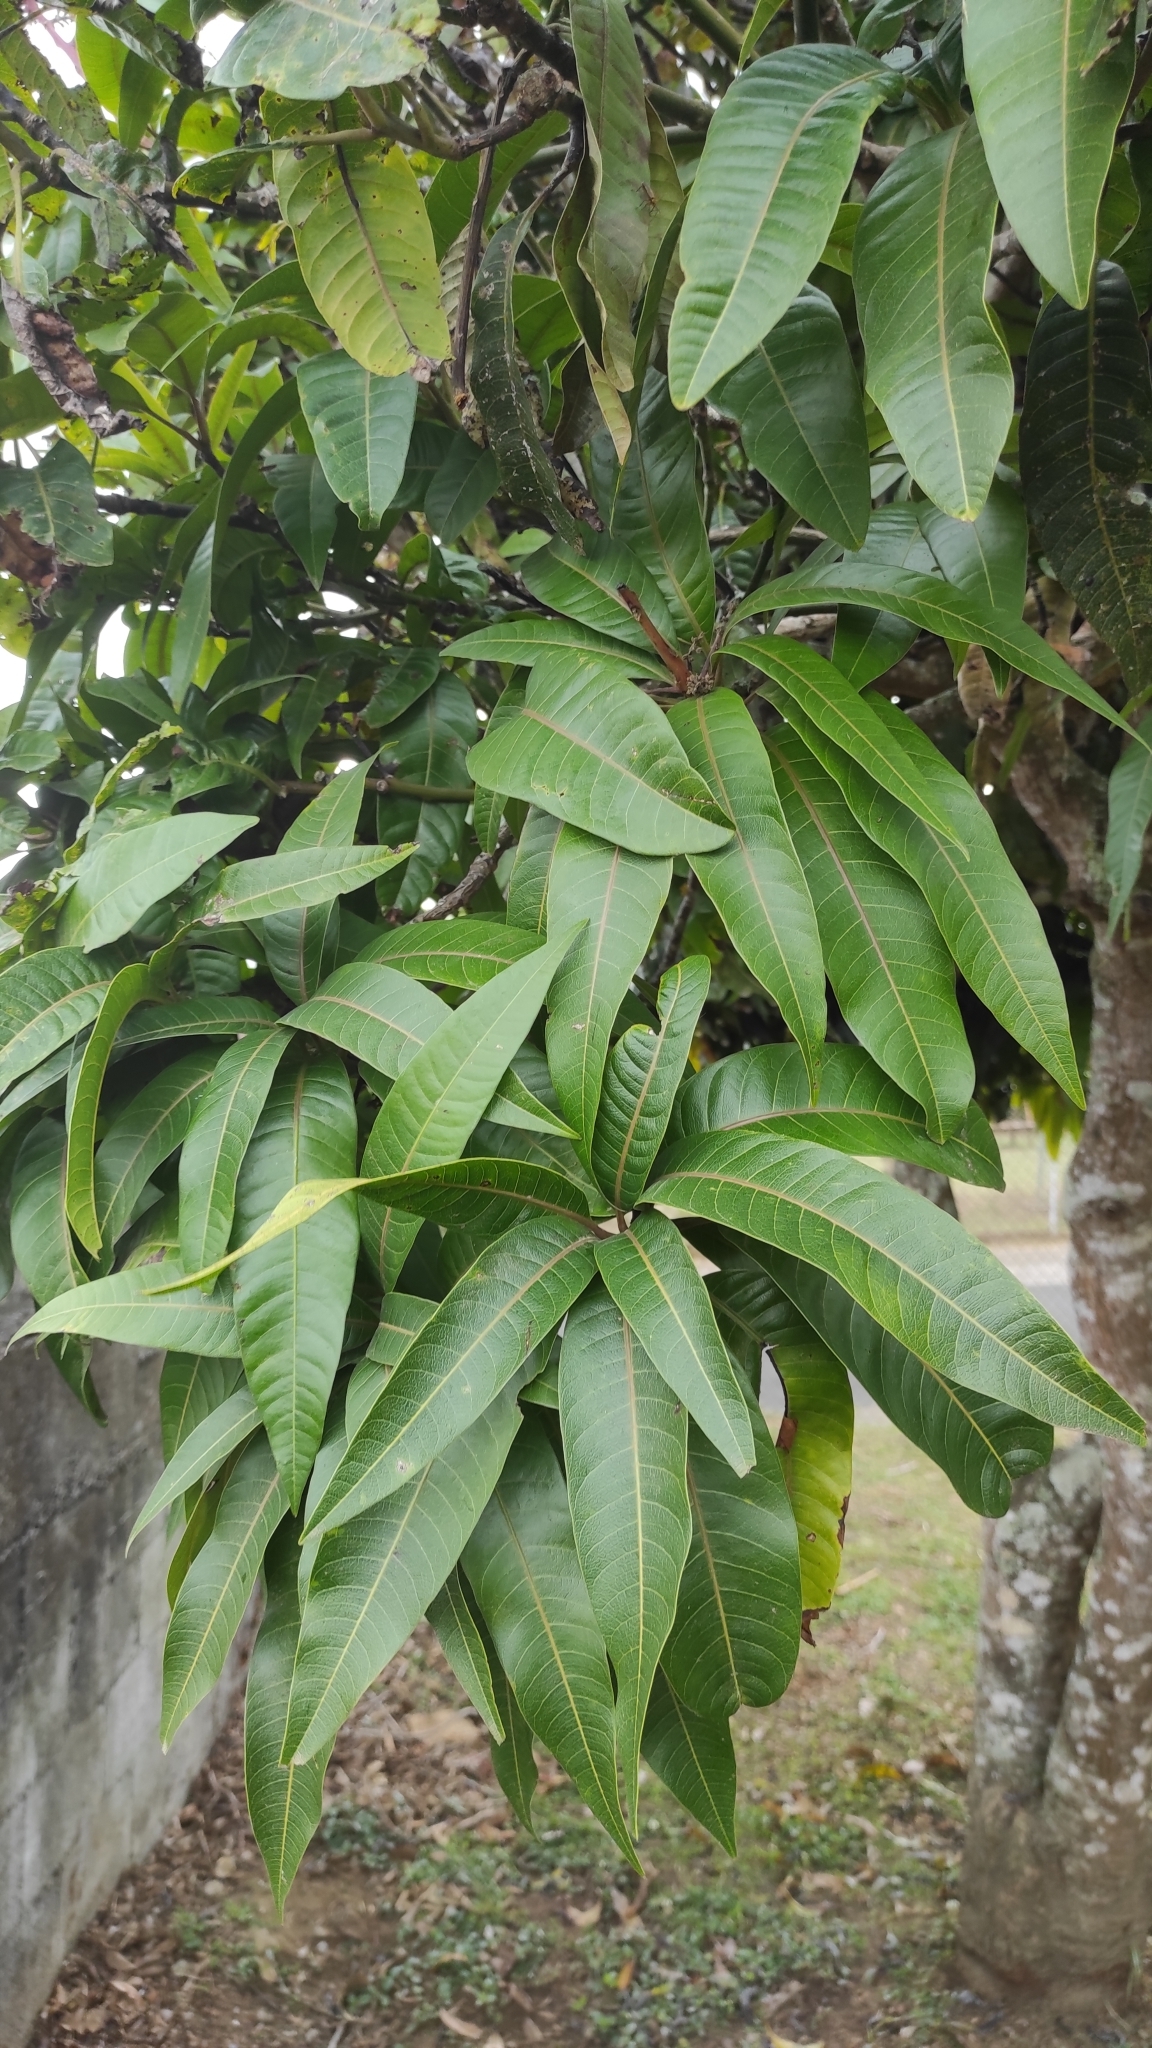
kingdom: Plantae
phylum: Tracheophyta
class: Magnoliopsida
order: Sapindales
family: Anacardiaceae
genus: Mangifera
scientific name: Mangifera indica
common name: Mango
